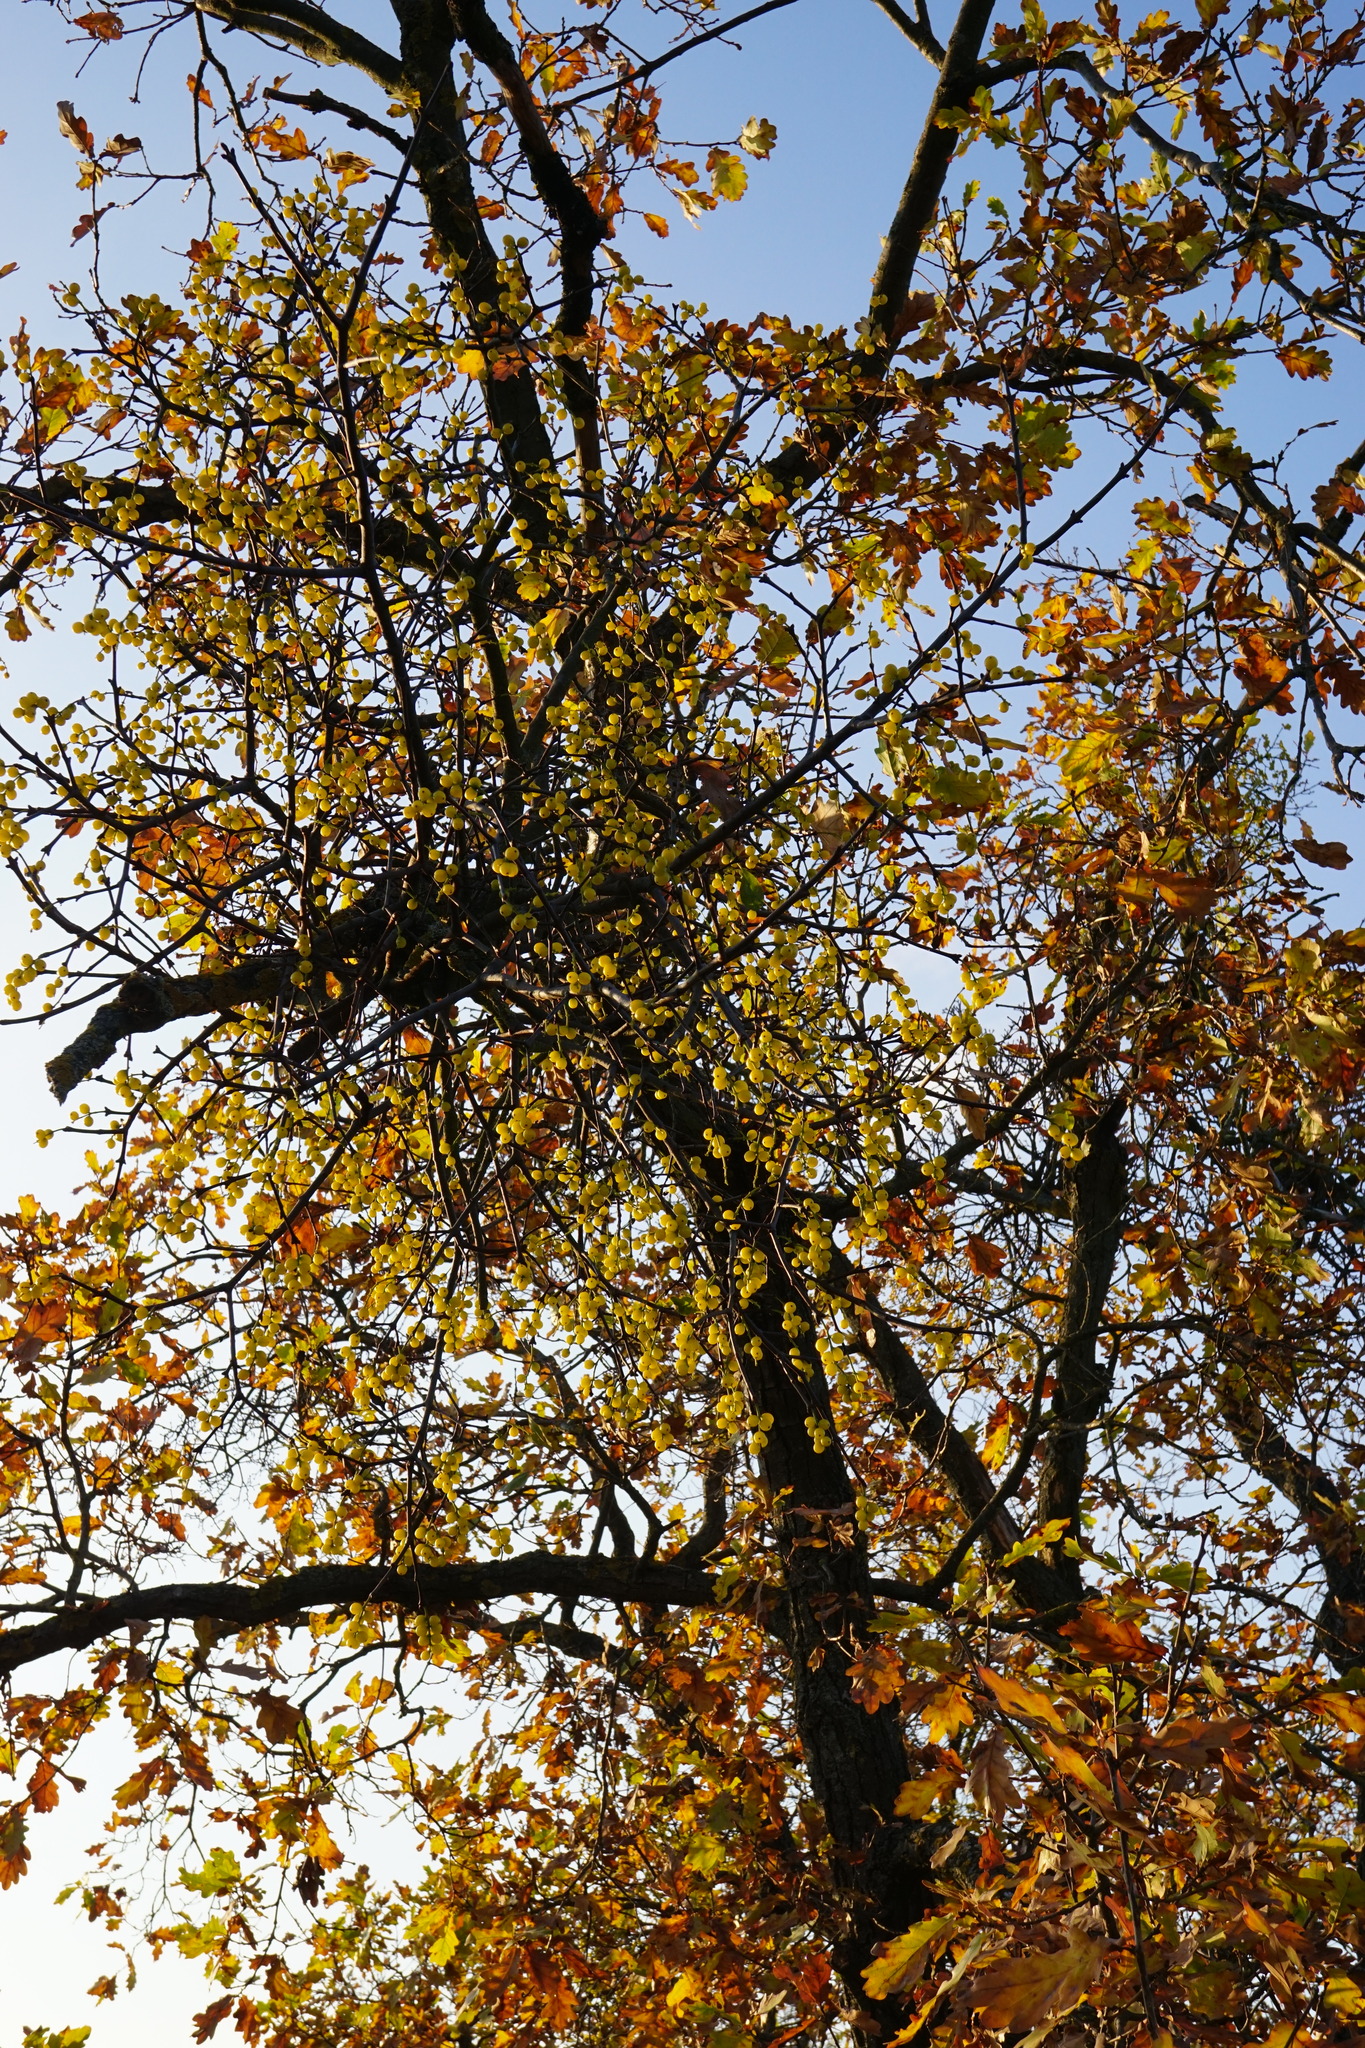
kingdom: Plantae
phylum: Tracheophyta
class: Magnoliopsida
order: Santalales
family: Loranthaceae
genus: Loranthus
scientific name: Loranthus europaeus
